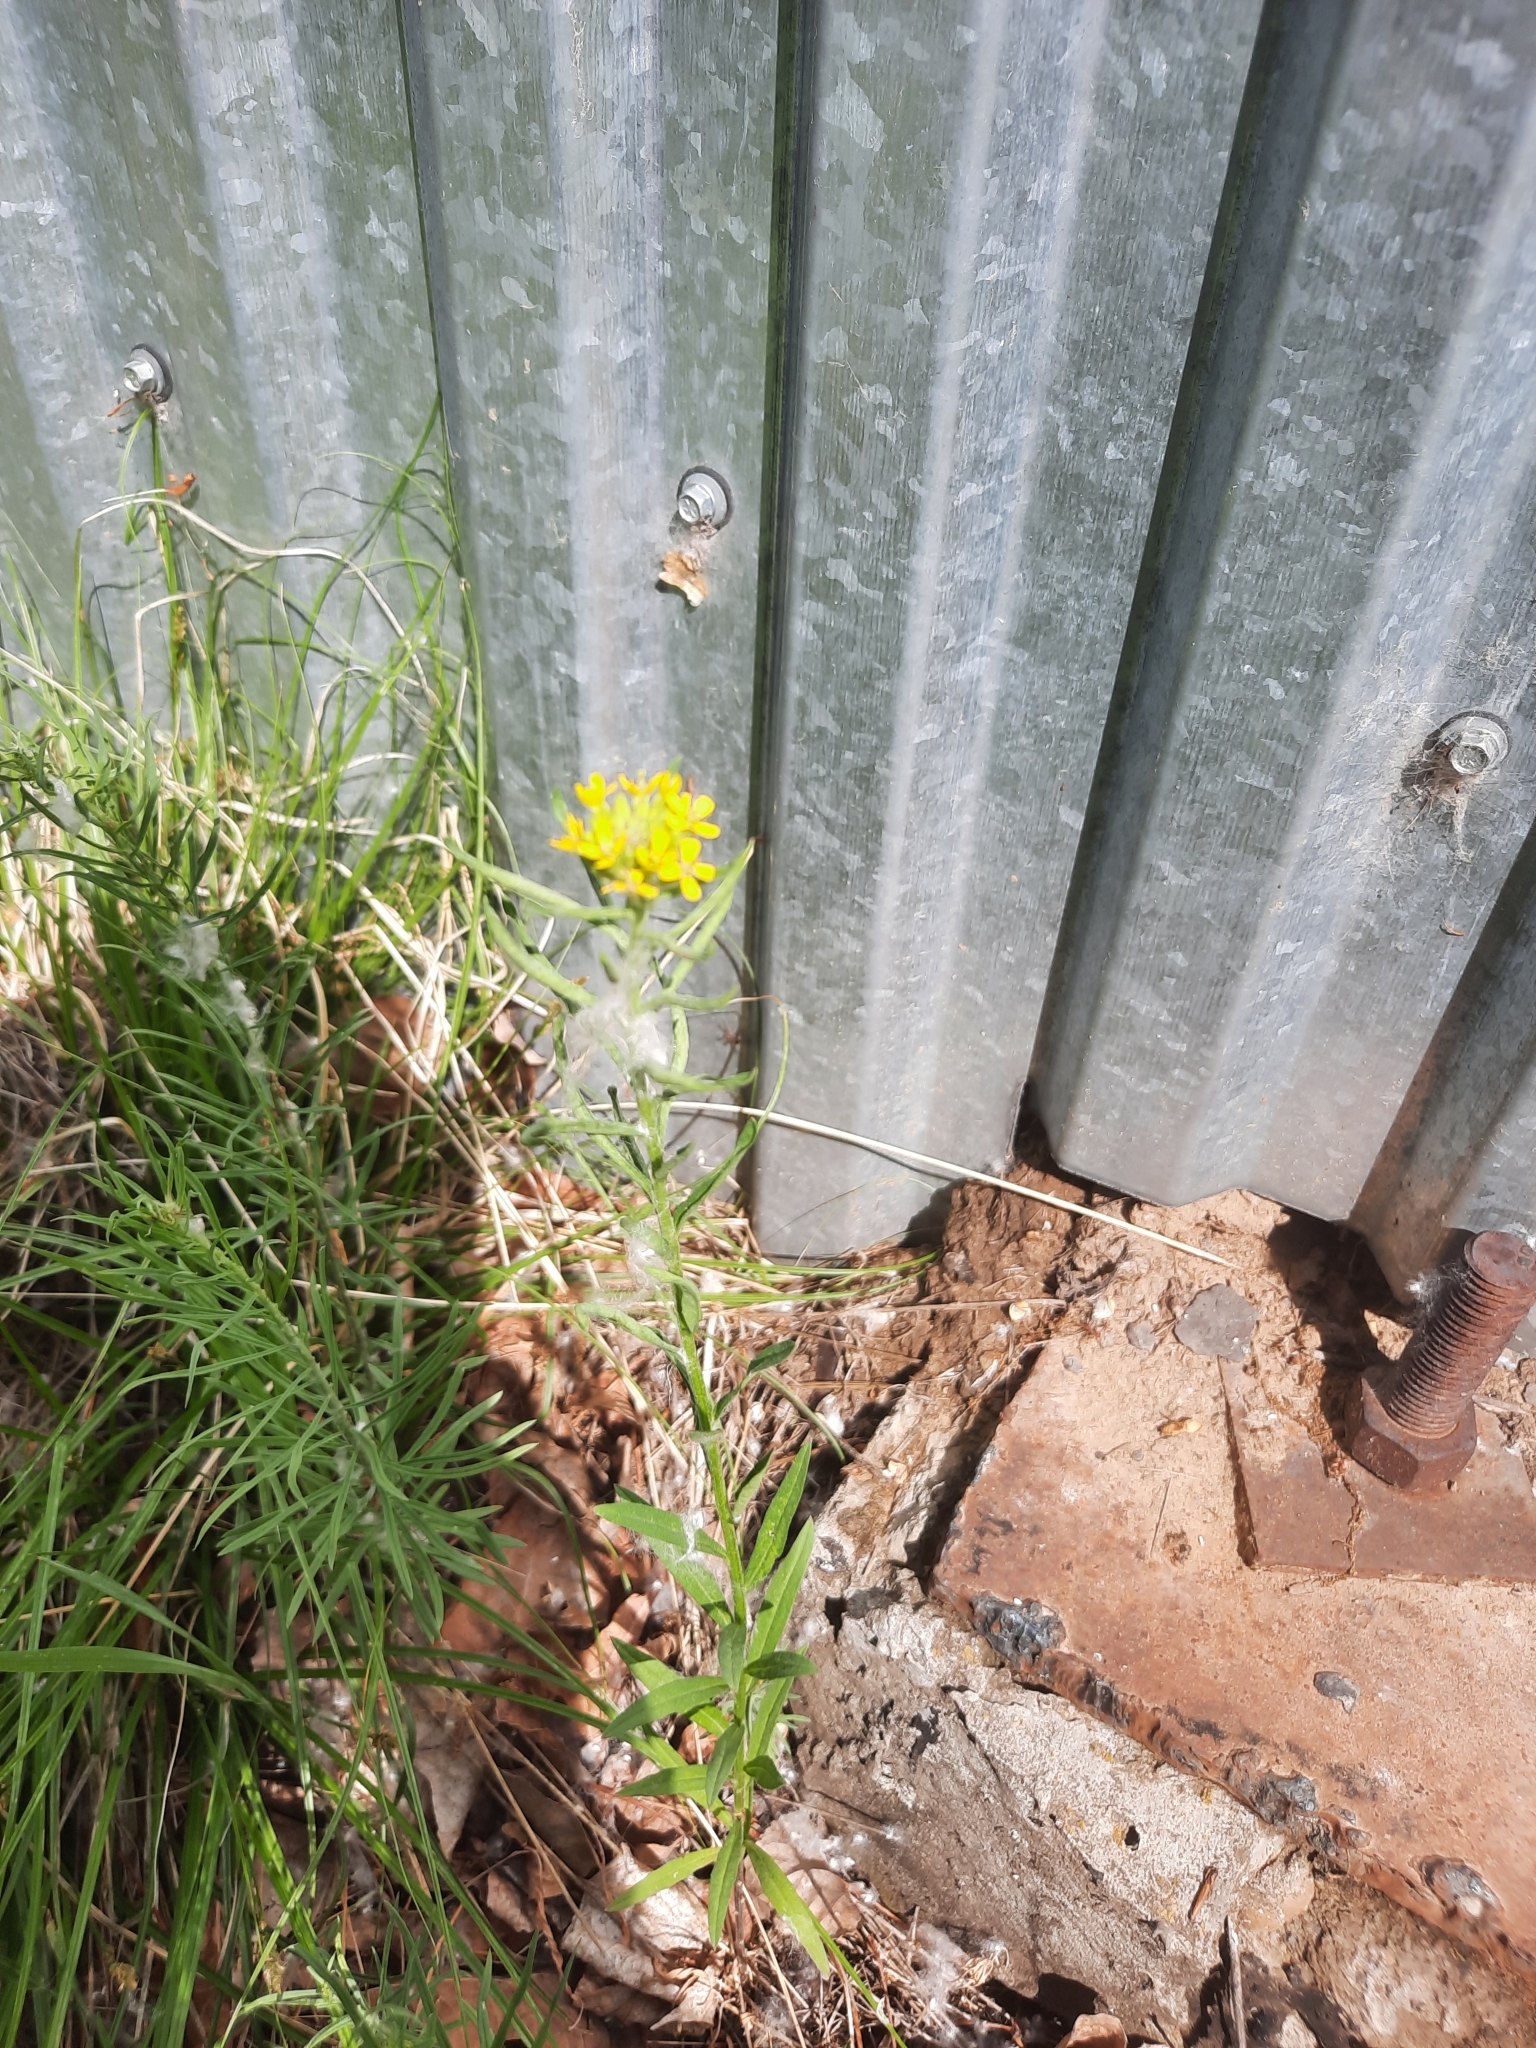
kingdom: Plantae
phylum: Tracheophyta
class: Magnoliopsida
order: Brassicales
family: Brassicaceae
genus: Erysimum
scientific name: Erysimum cheiranthoides
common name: Treacle mustard
